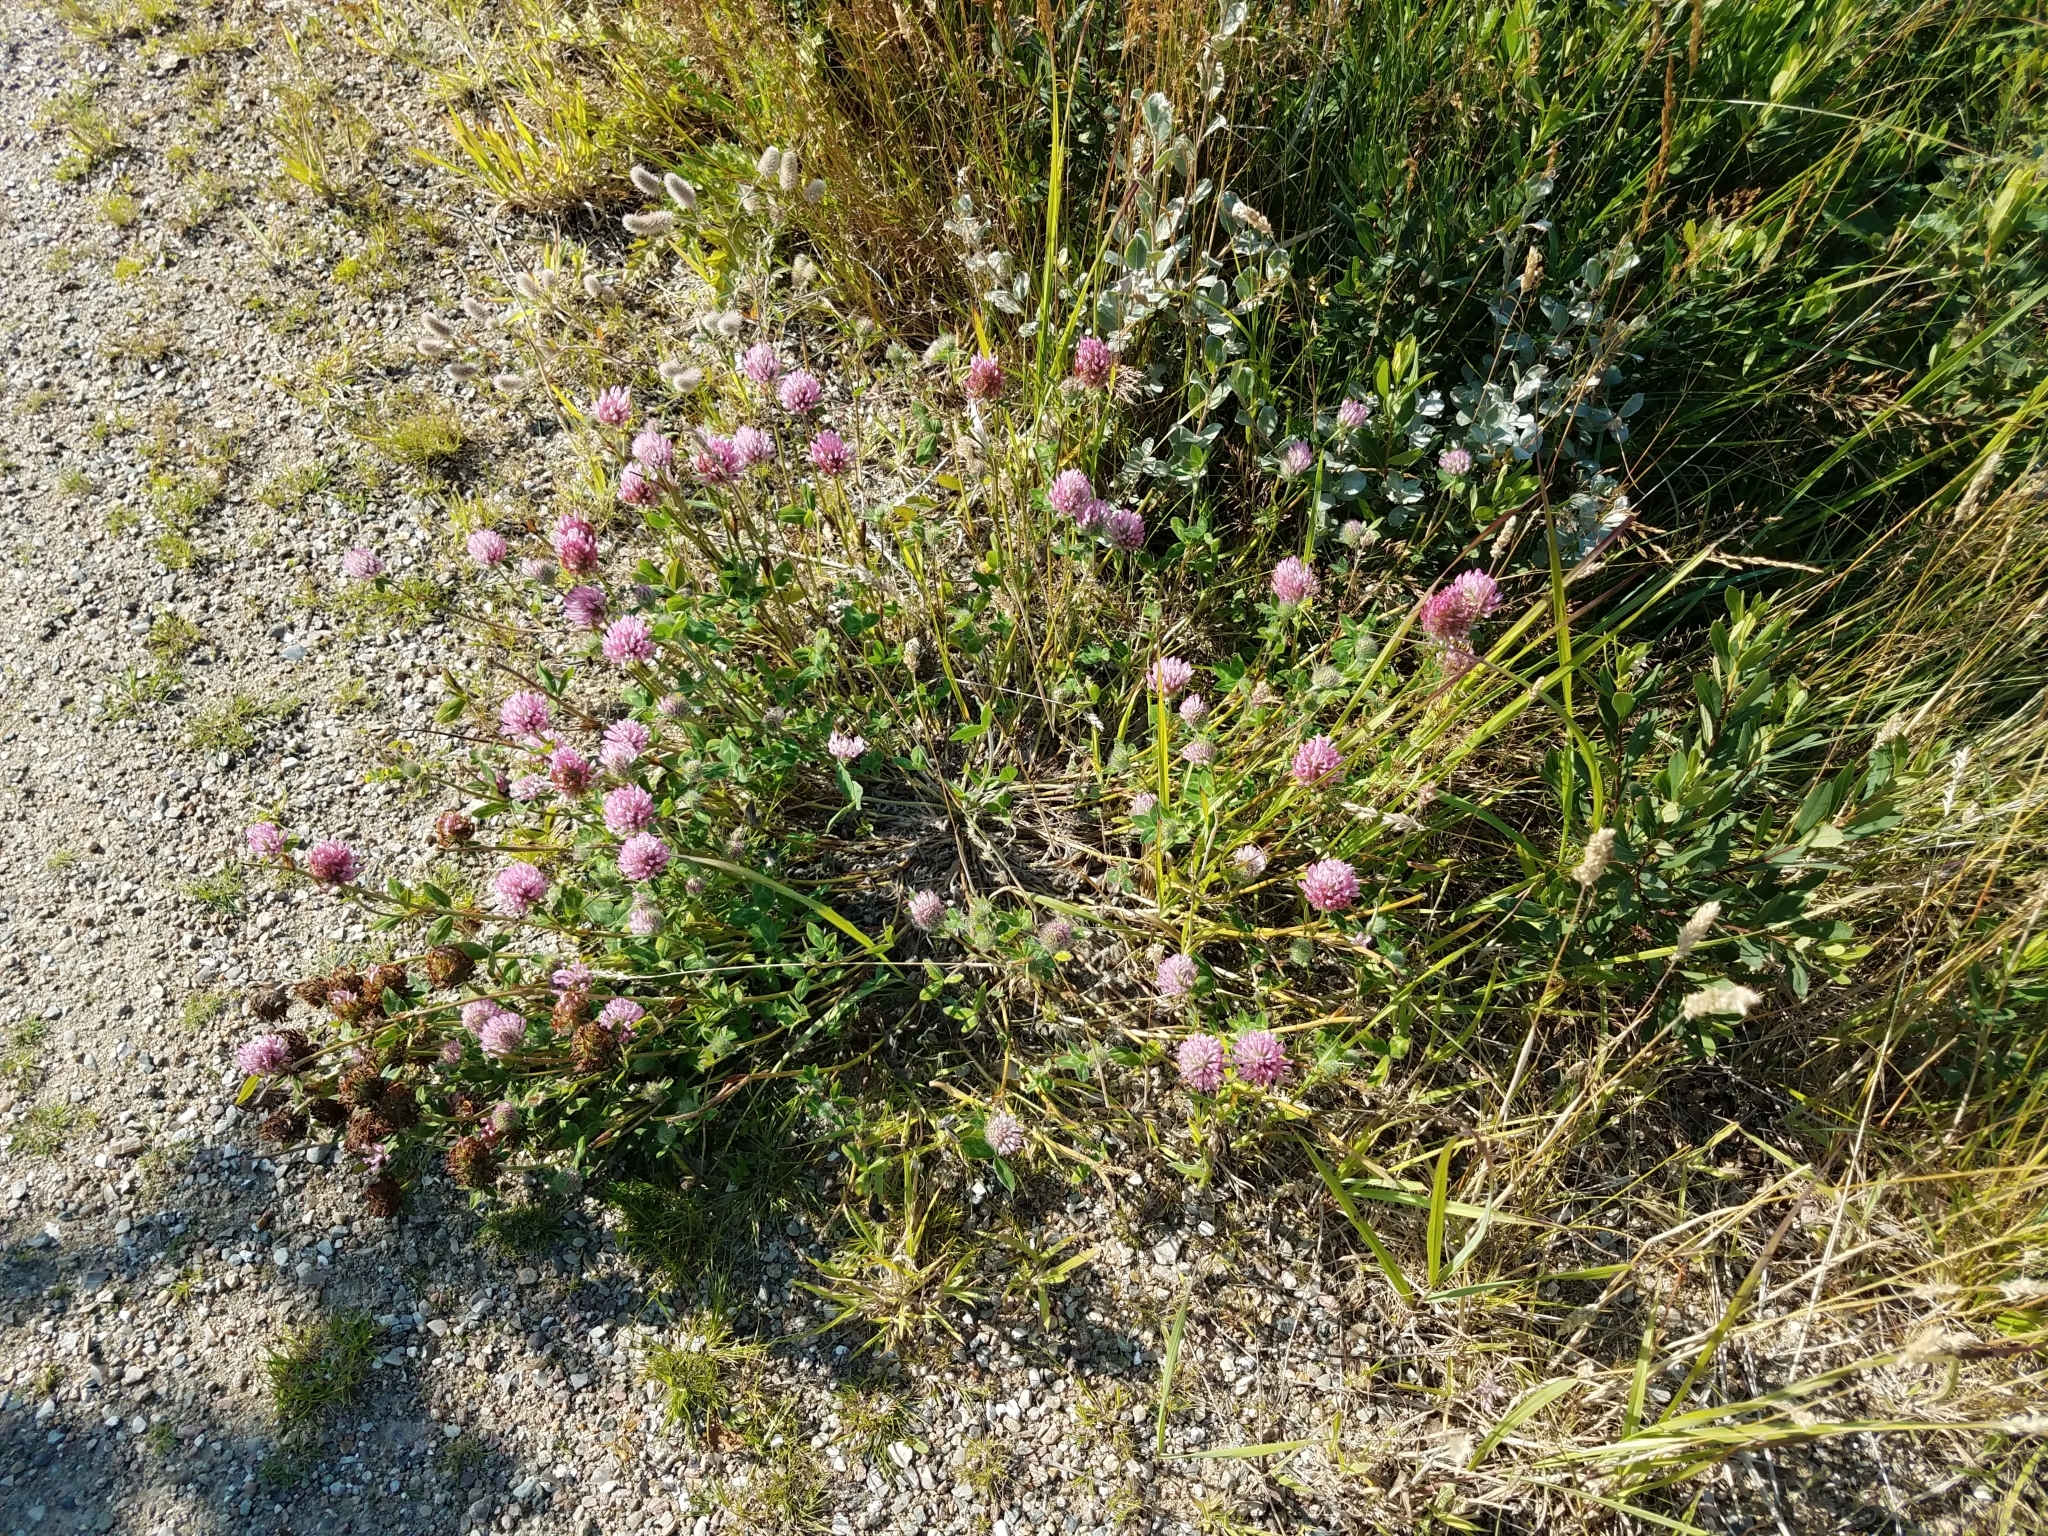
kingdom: Plantae
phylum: Tracheophyta
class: Magnoliopsida
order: Fabales
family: Fabaceae
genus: Trifolium
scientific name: Trifolium pratense
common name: Red clover
